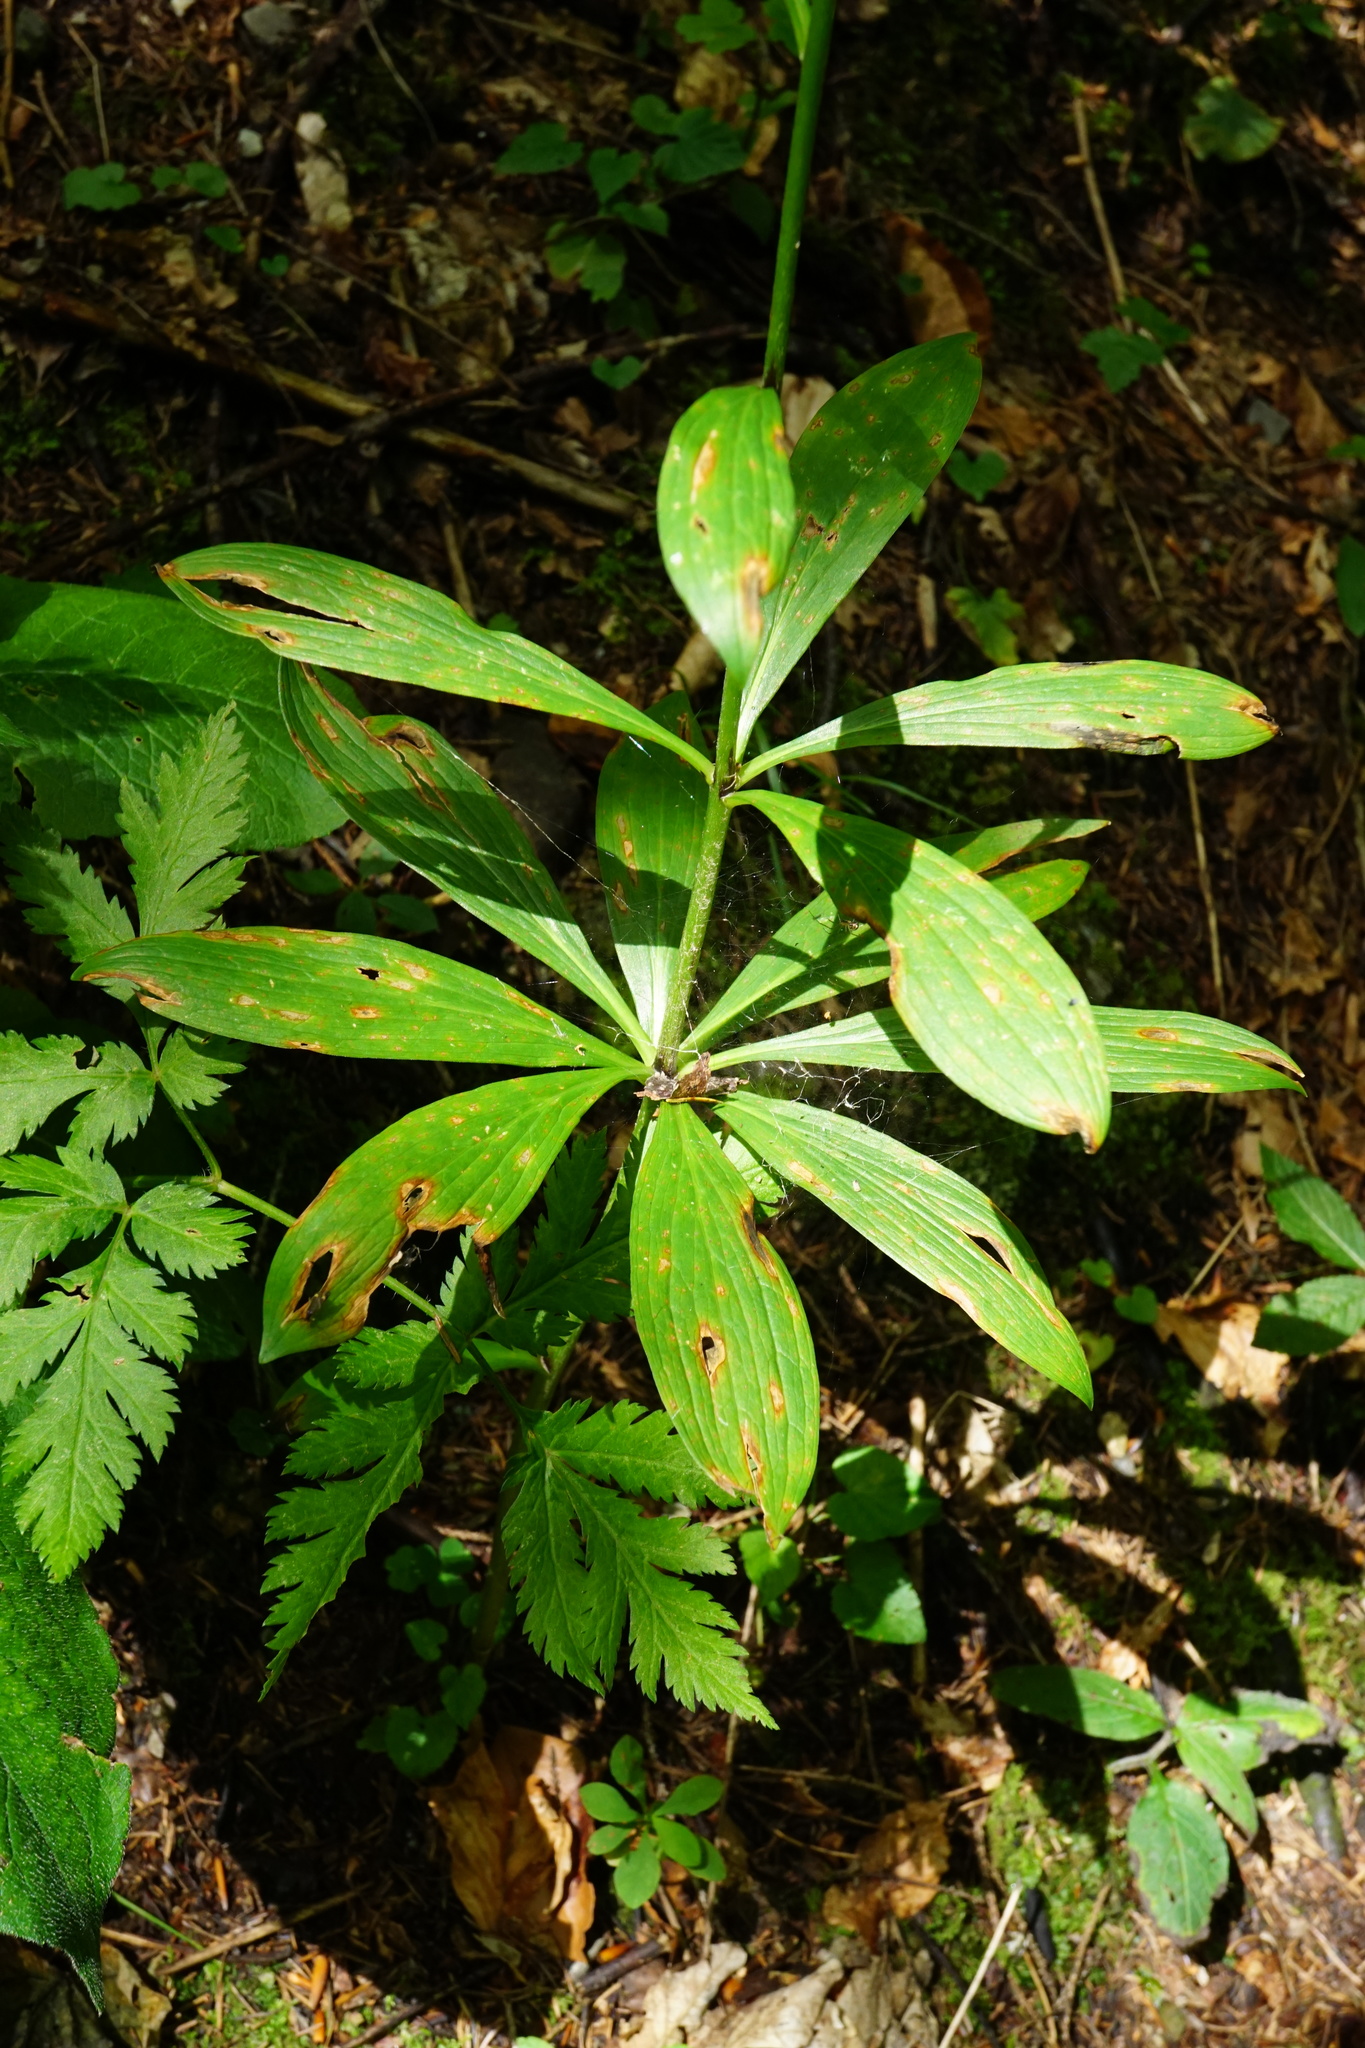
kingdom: Plantae
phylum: Tracheophyta
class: Liliopsida
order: Liliales
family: Liliaceae
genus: Lilium
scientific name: Lilium martagon
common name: Martagon lily
